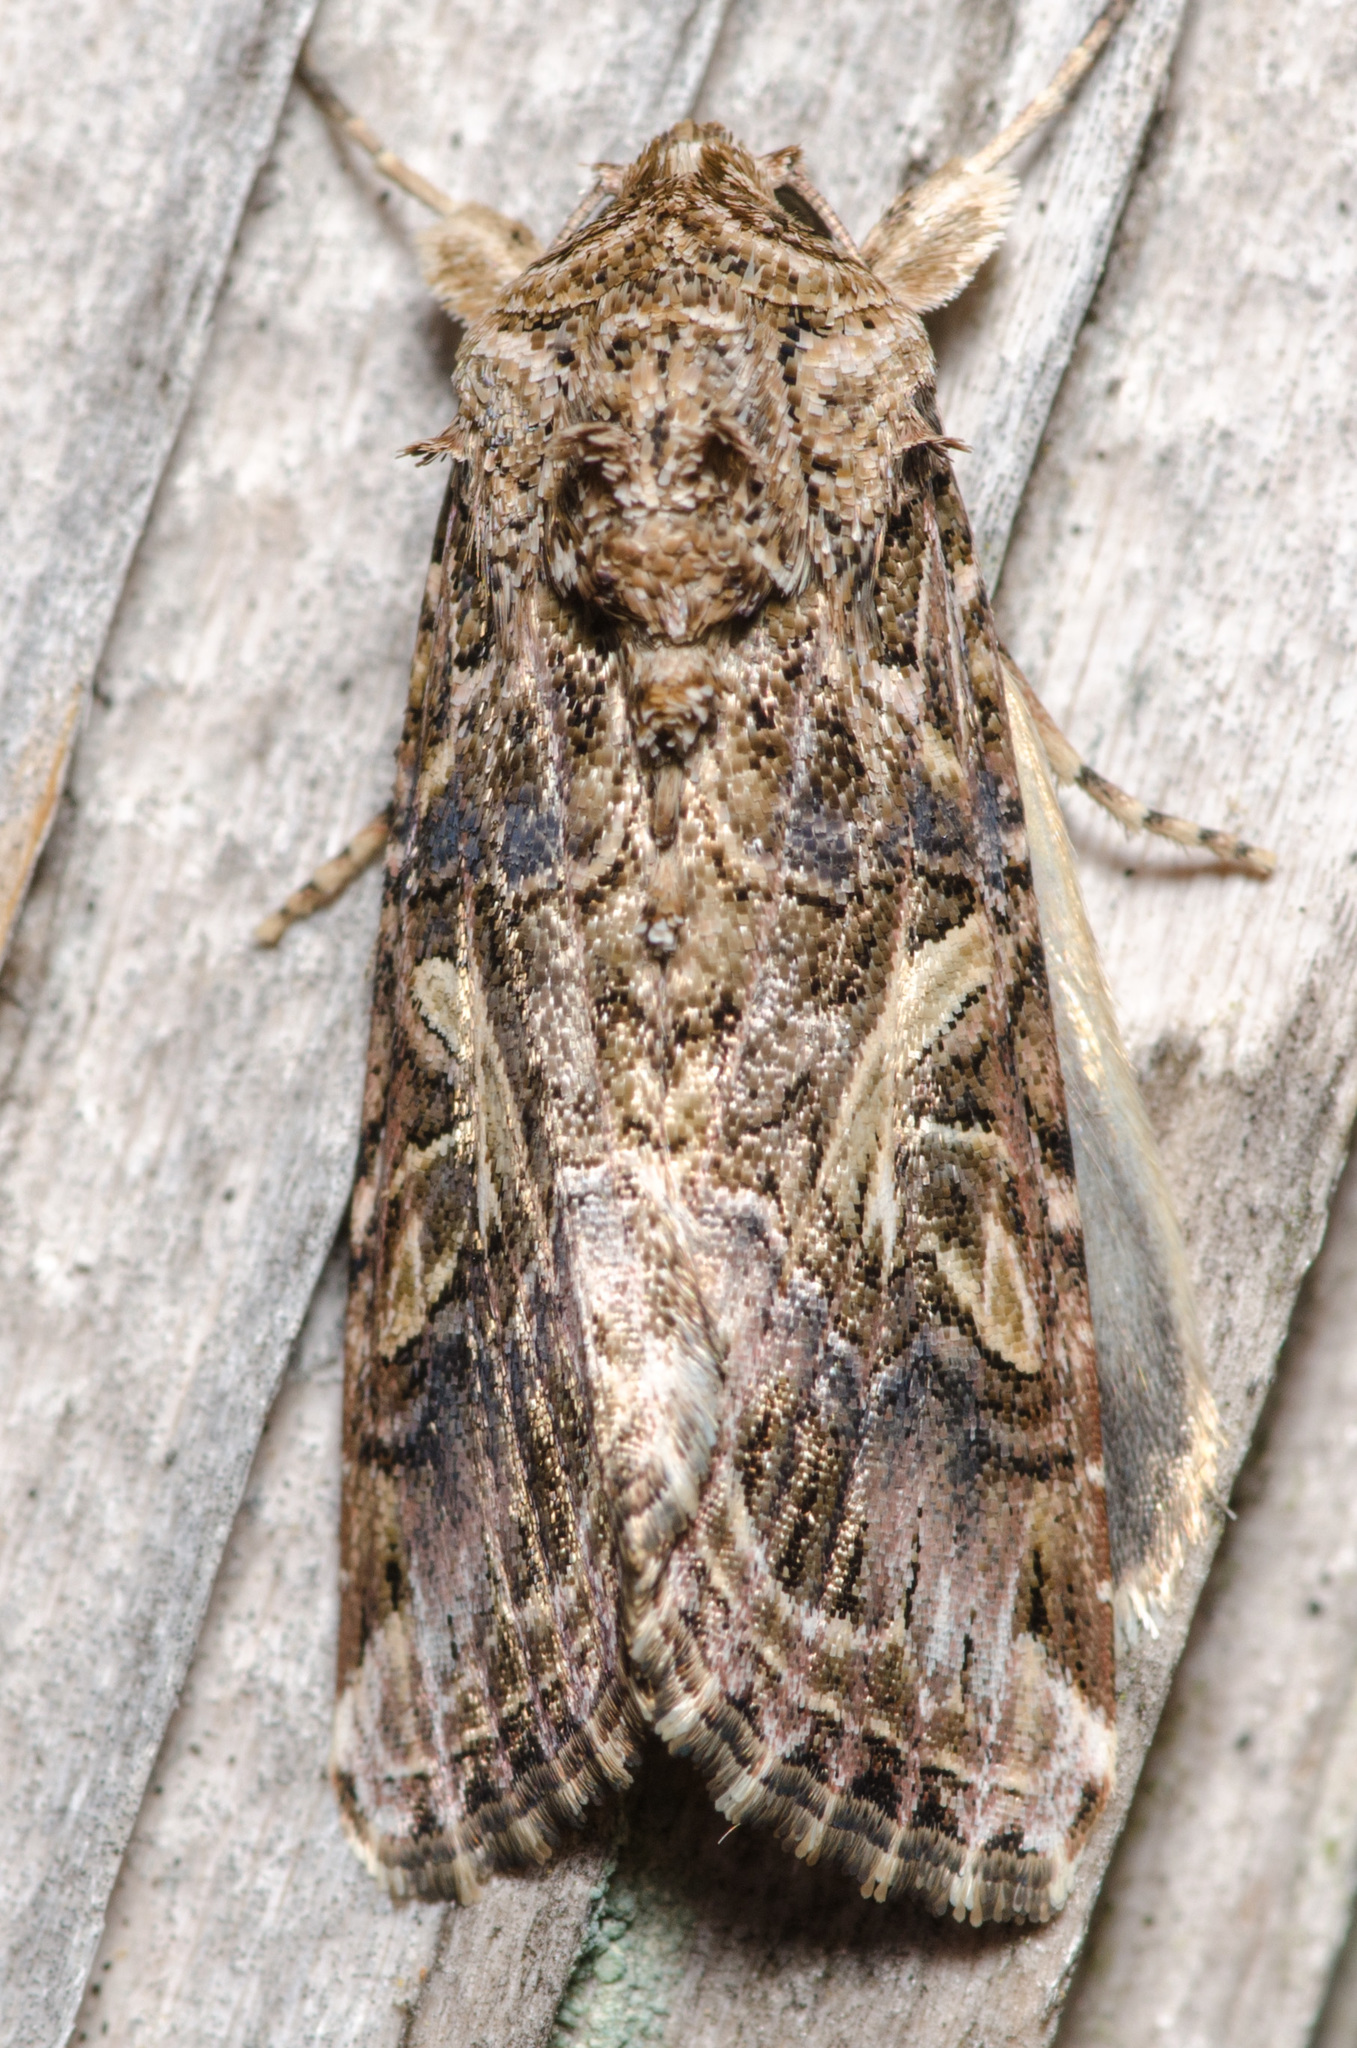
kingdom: Animalia
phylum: Arthropoda
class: Insecta
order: Lepidoptera
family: Noctuidae
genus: Spodoptera
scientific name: Spodoptera ornithogalli
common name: Yellow-striped armyworm
